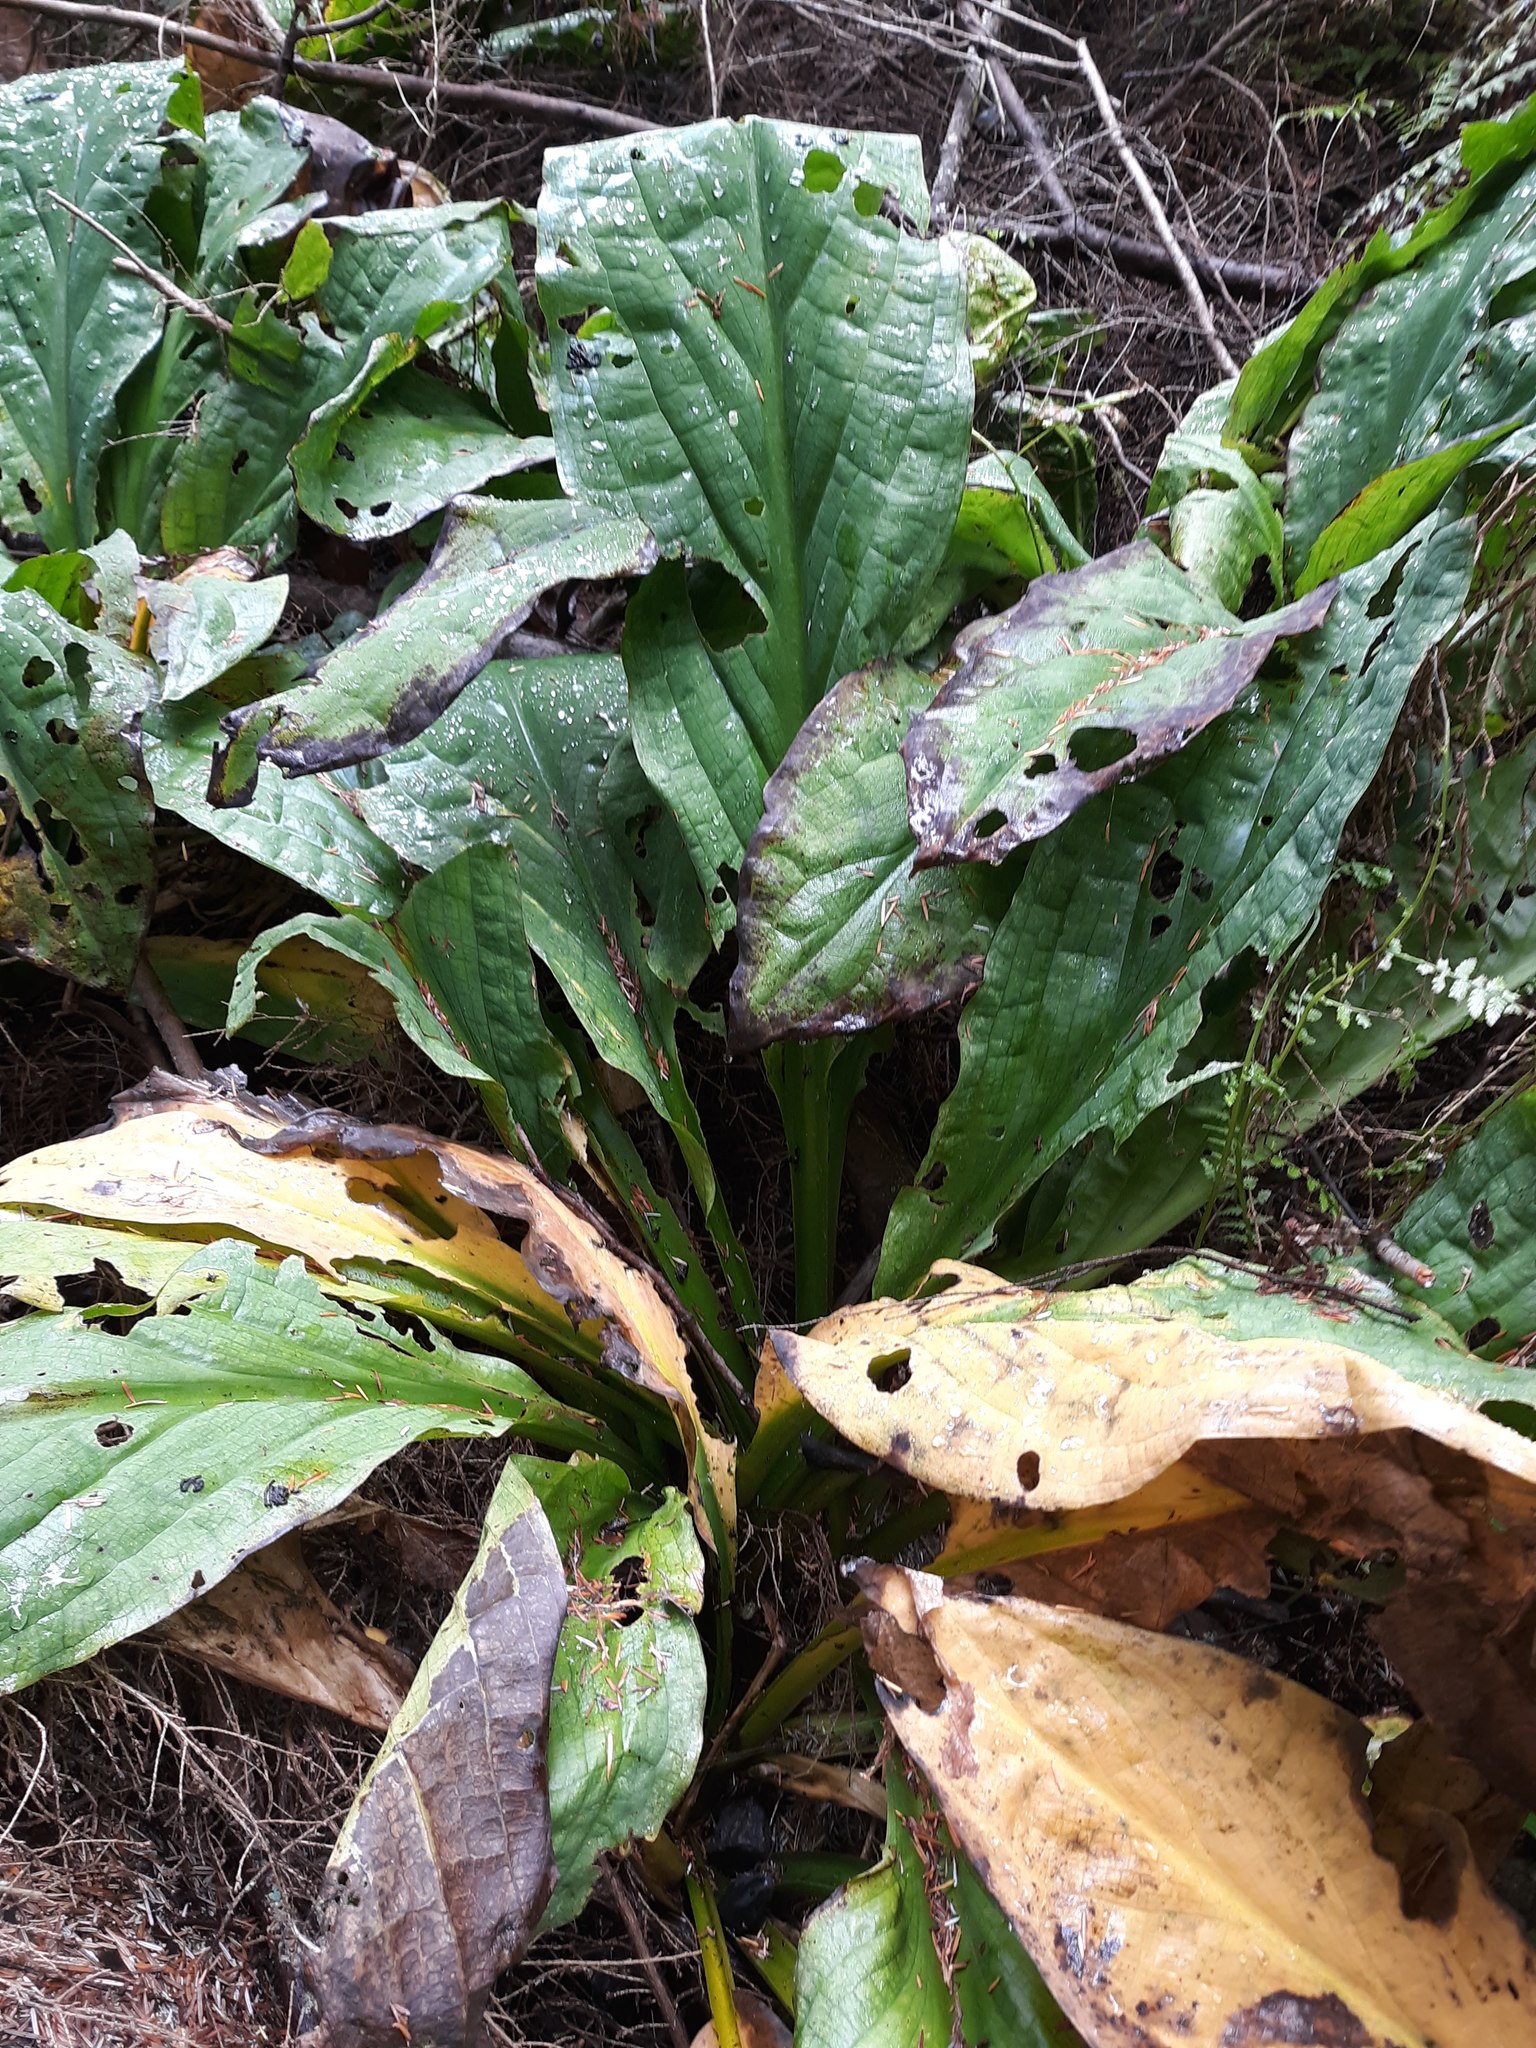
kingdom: Plantae
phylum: Tracheophyta
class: Liliopsida
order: Alismatales
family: Araceae
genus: Lysichiton
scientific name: Lysichiton americanus
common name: American skunk cabbage
